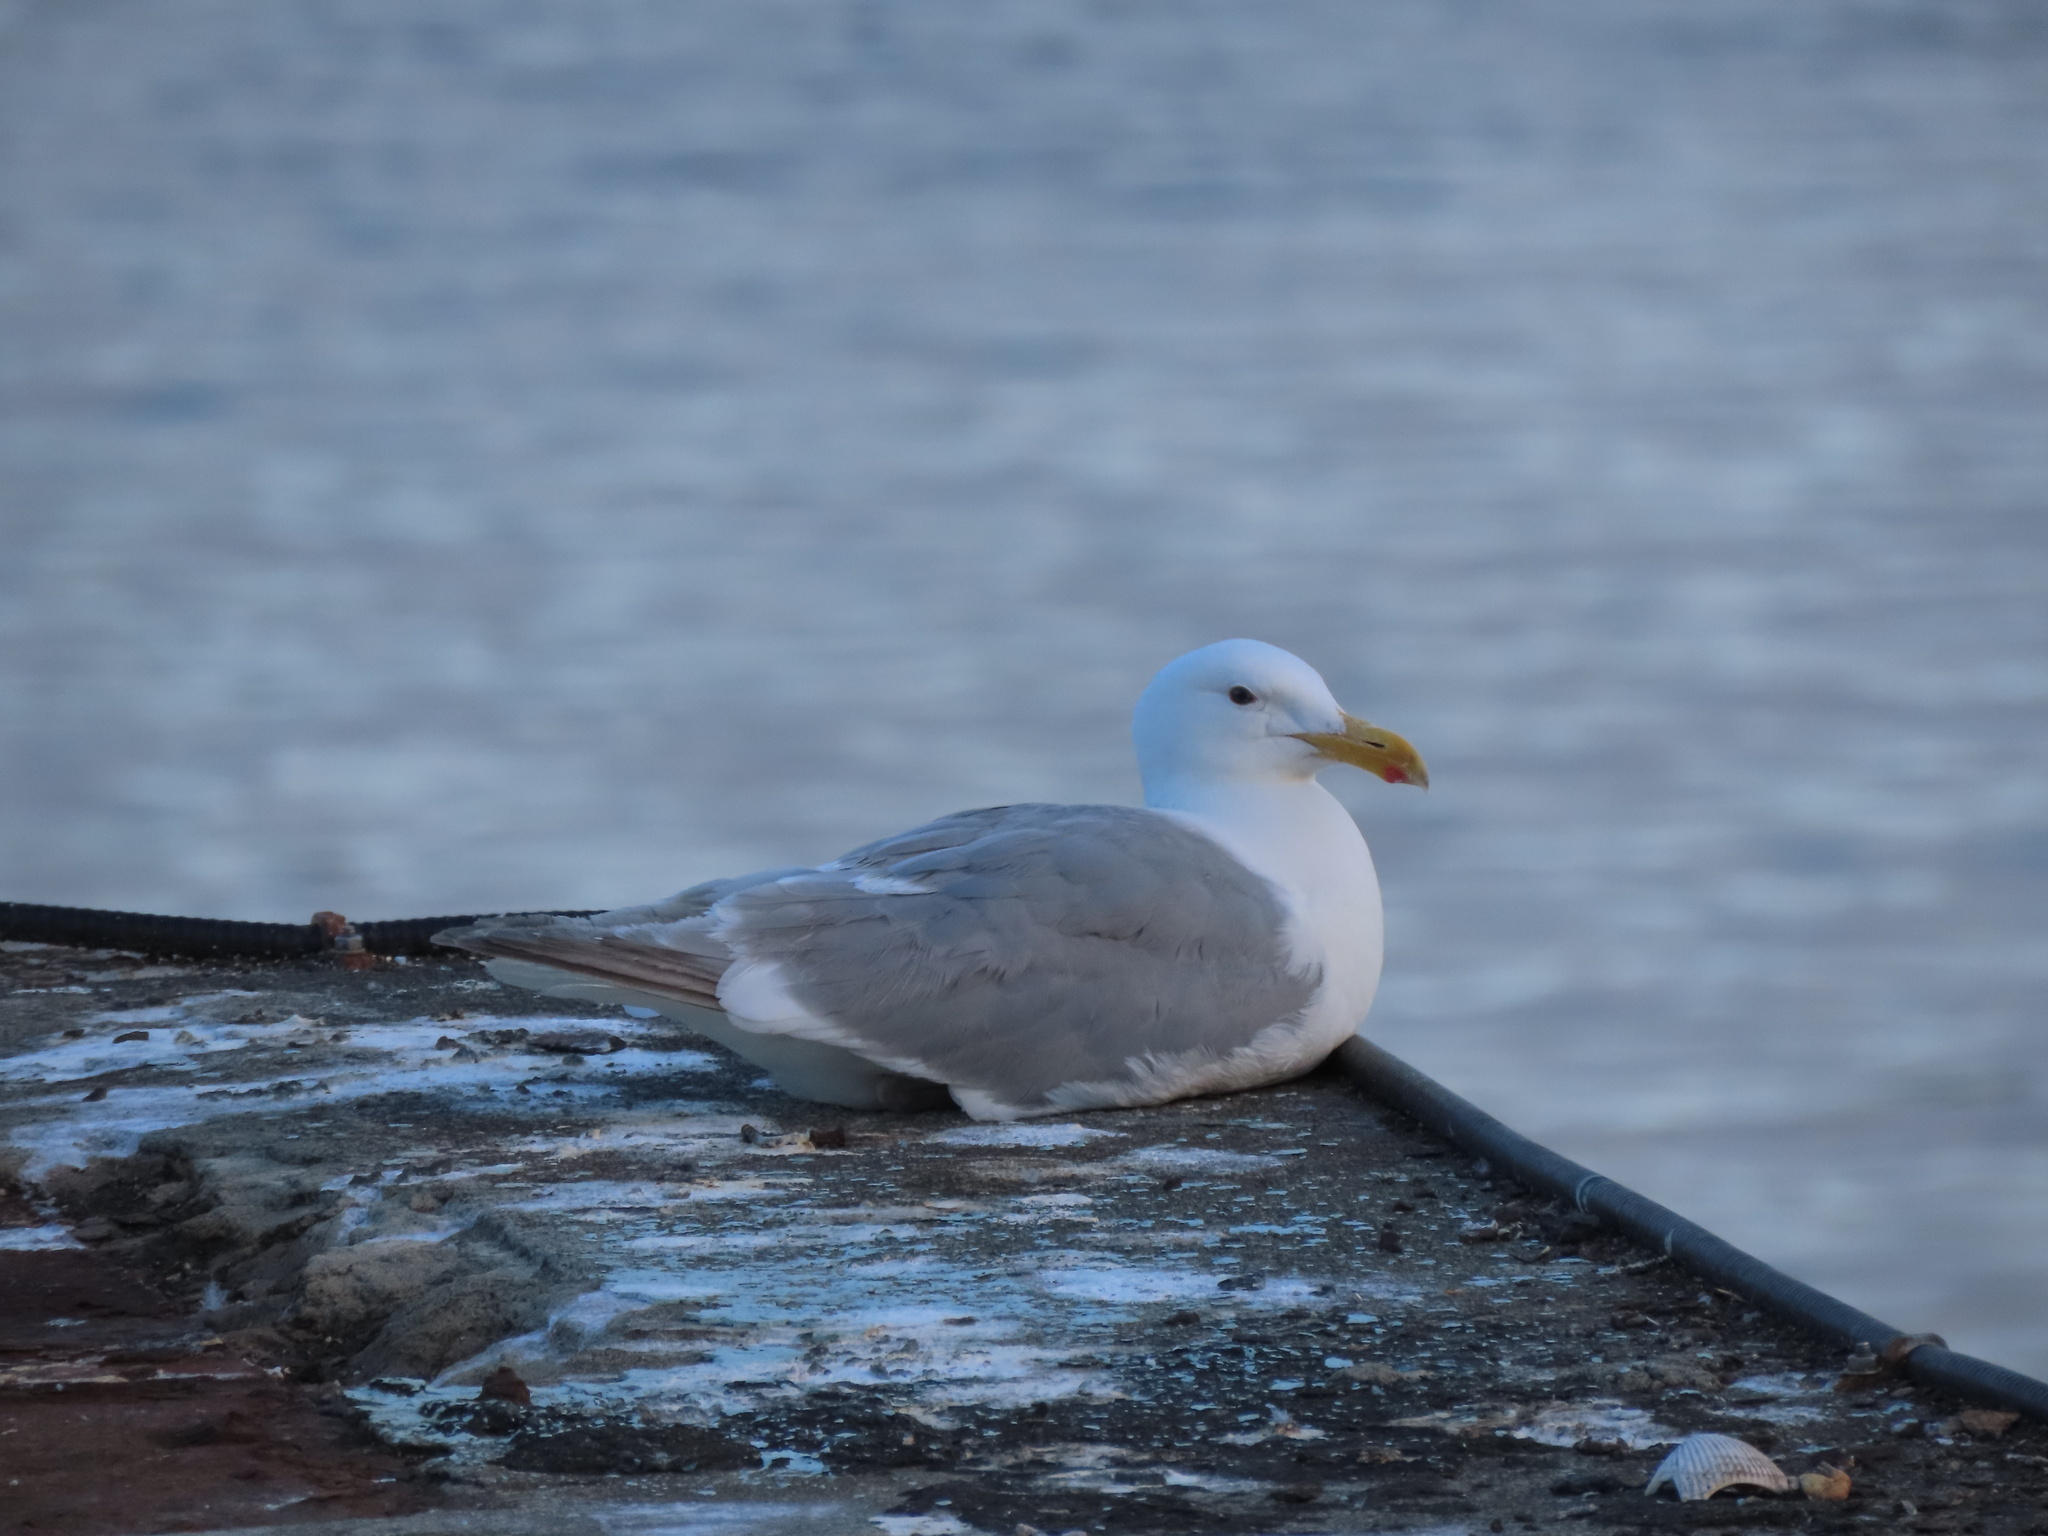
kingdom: Animalia
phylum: Chordata
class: Aves
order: Charadriiformes
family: Laridae
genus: Larus
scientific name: Larus glaucescens
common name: Glaucous-winged gull
